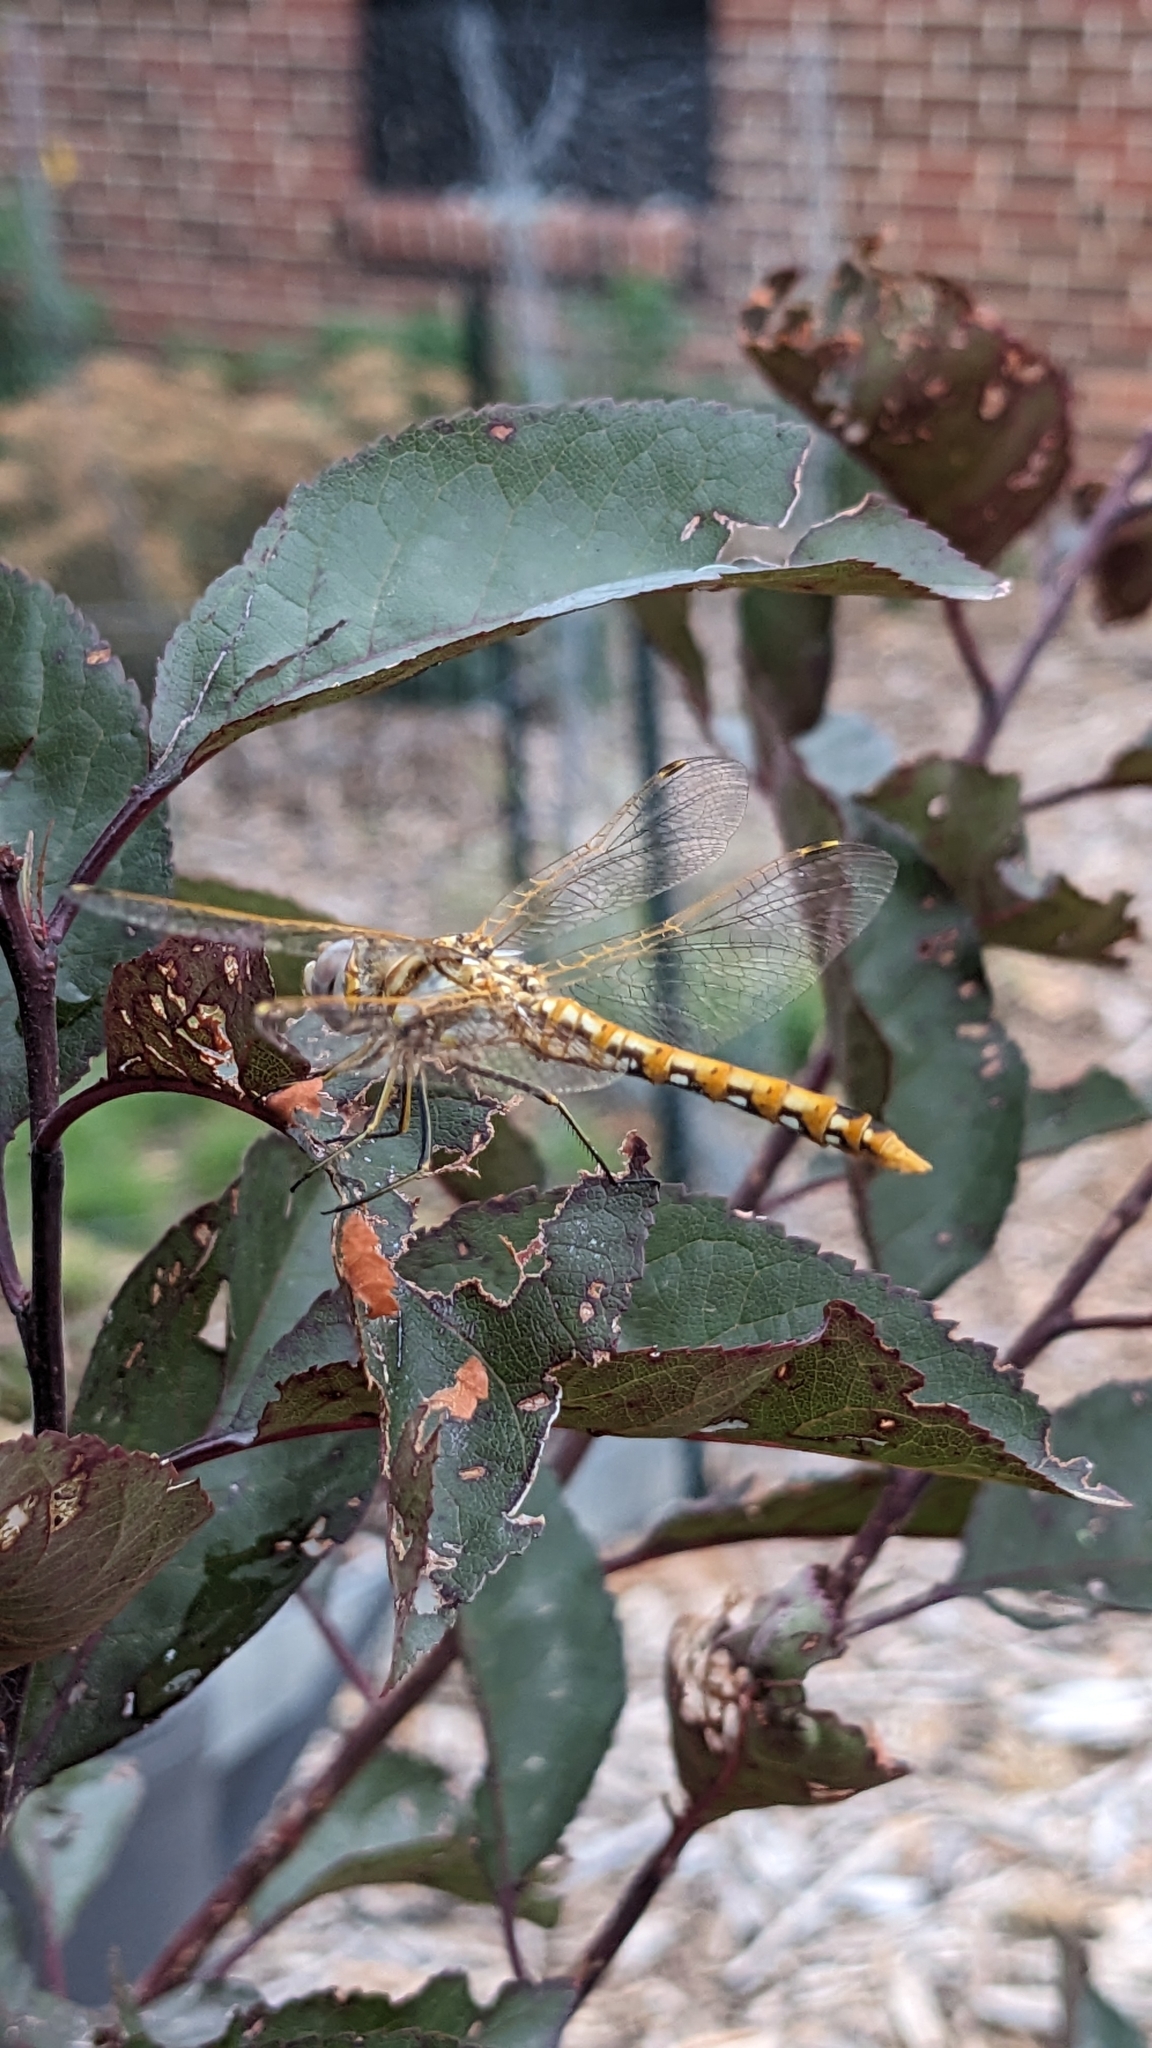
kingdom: Animalia
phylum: Arthropoda
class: Insecta
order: Odonata
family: Libellulidae
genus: Sympetrum
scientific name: Sympetrum corruptum
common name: Variegated meadowhawk
